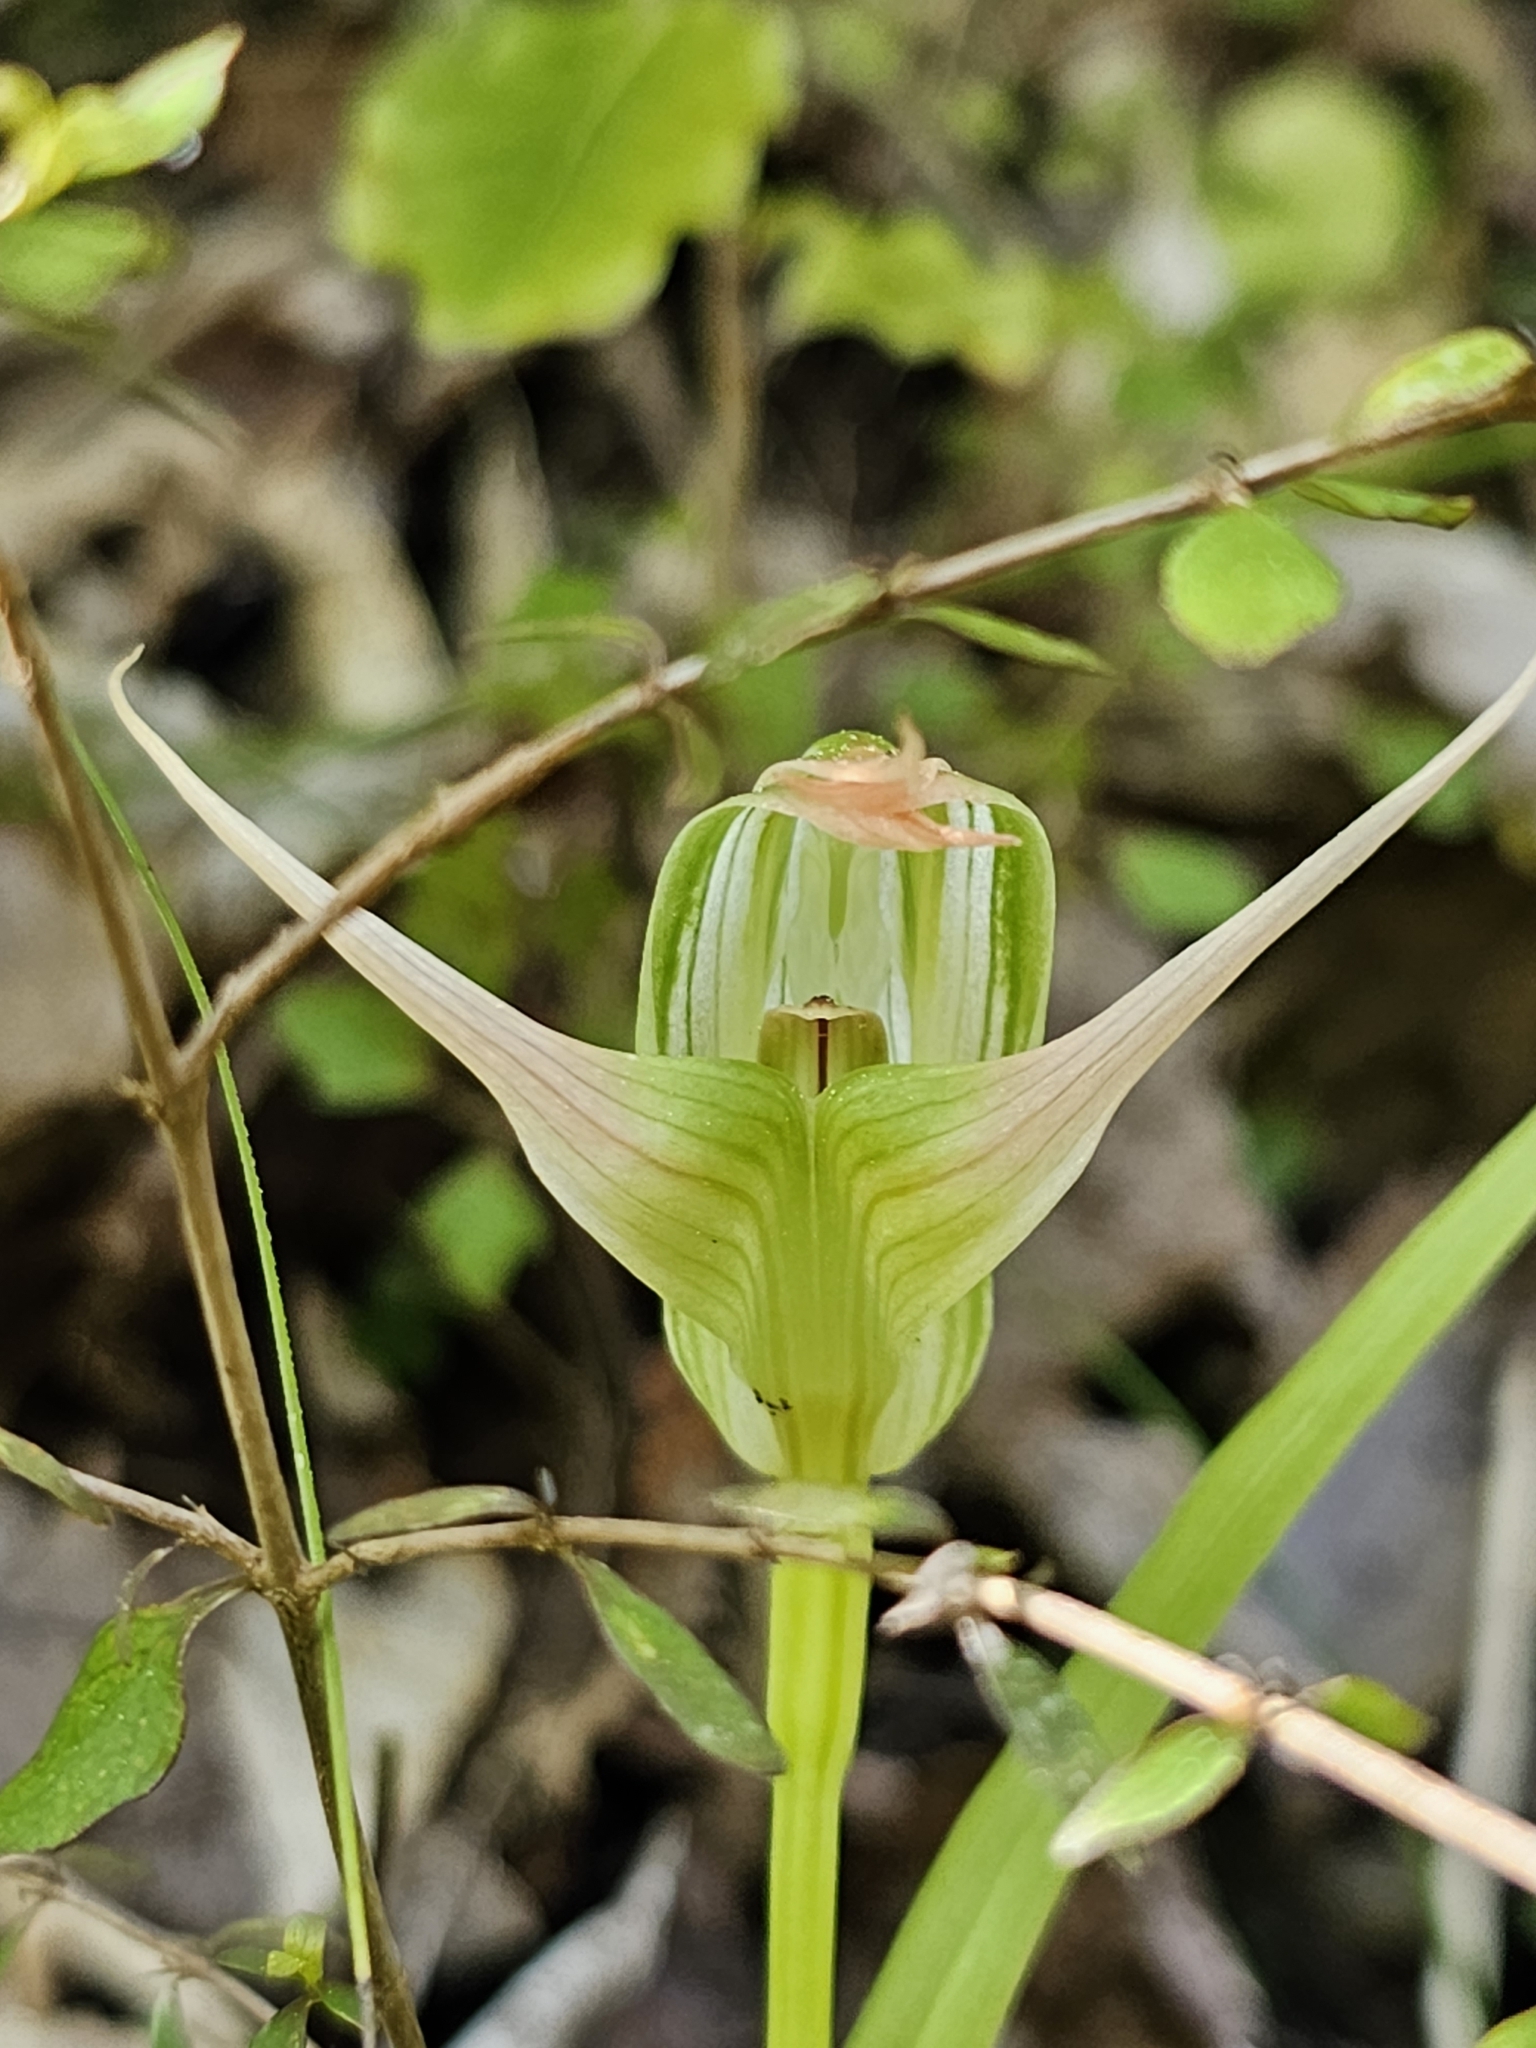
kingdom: Plantae
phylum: Tracheophyta
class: Liliopsida
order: Asparagales
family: Orchidaceae
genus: Pterostylis
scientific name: Pterostylis banksii
